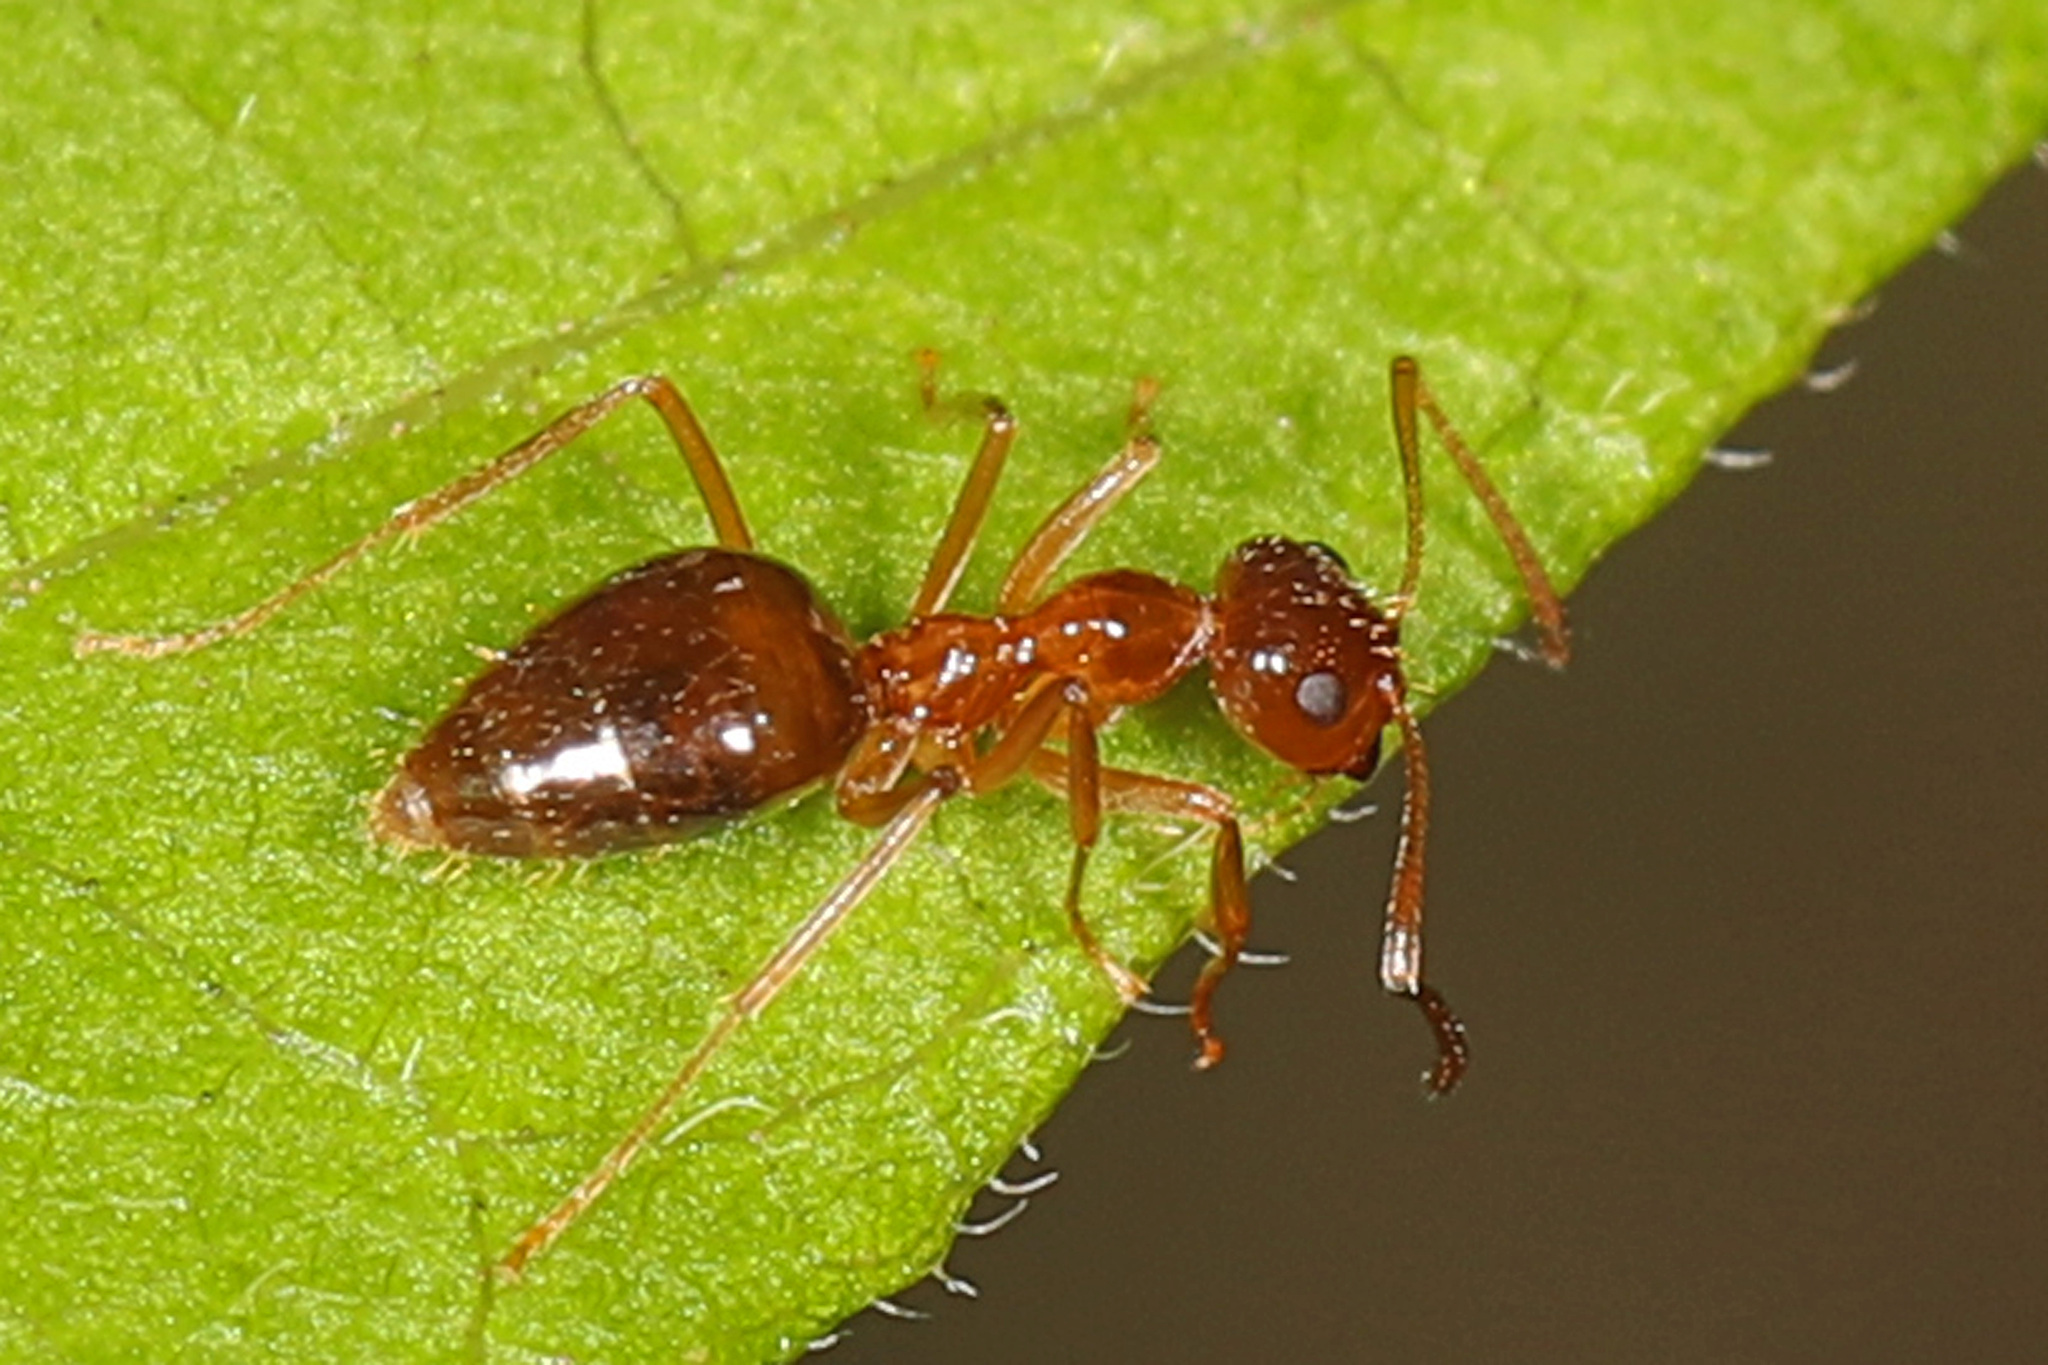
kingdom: Animalia
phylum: Arthropoda
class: Insecta
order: Hymenoptera
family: Formicidae
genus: Prenolepis
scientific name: Prenolepis imparis
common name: Small honey ant
